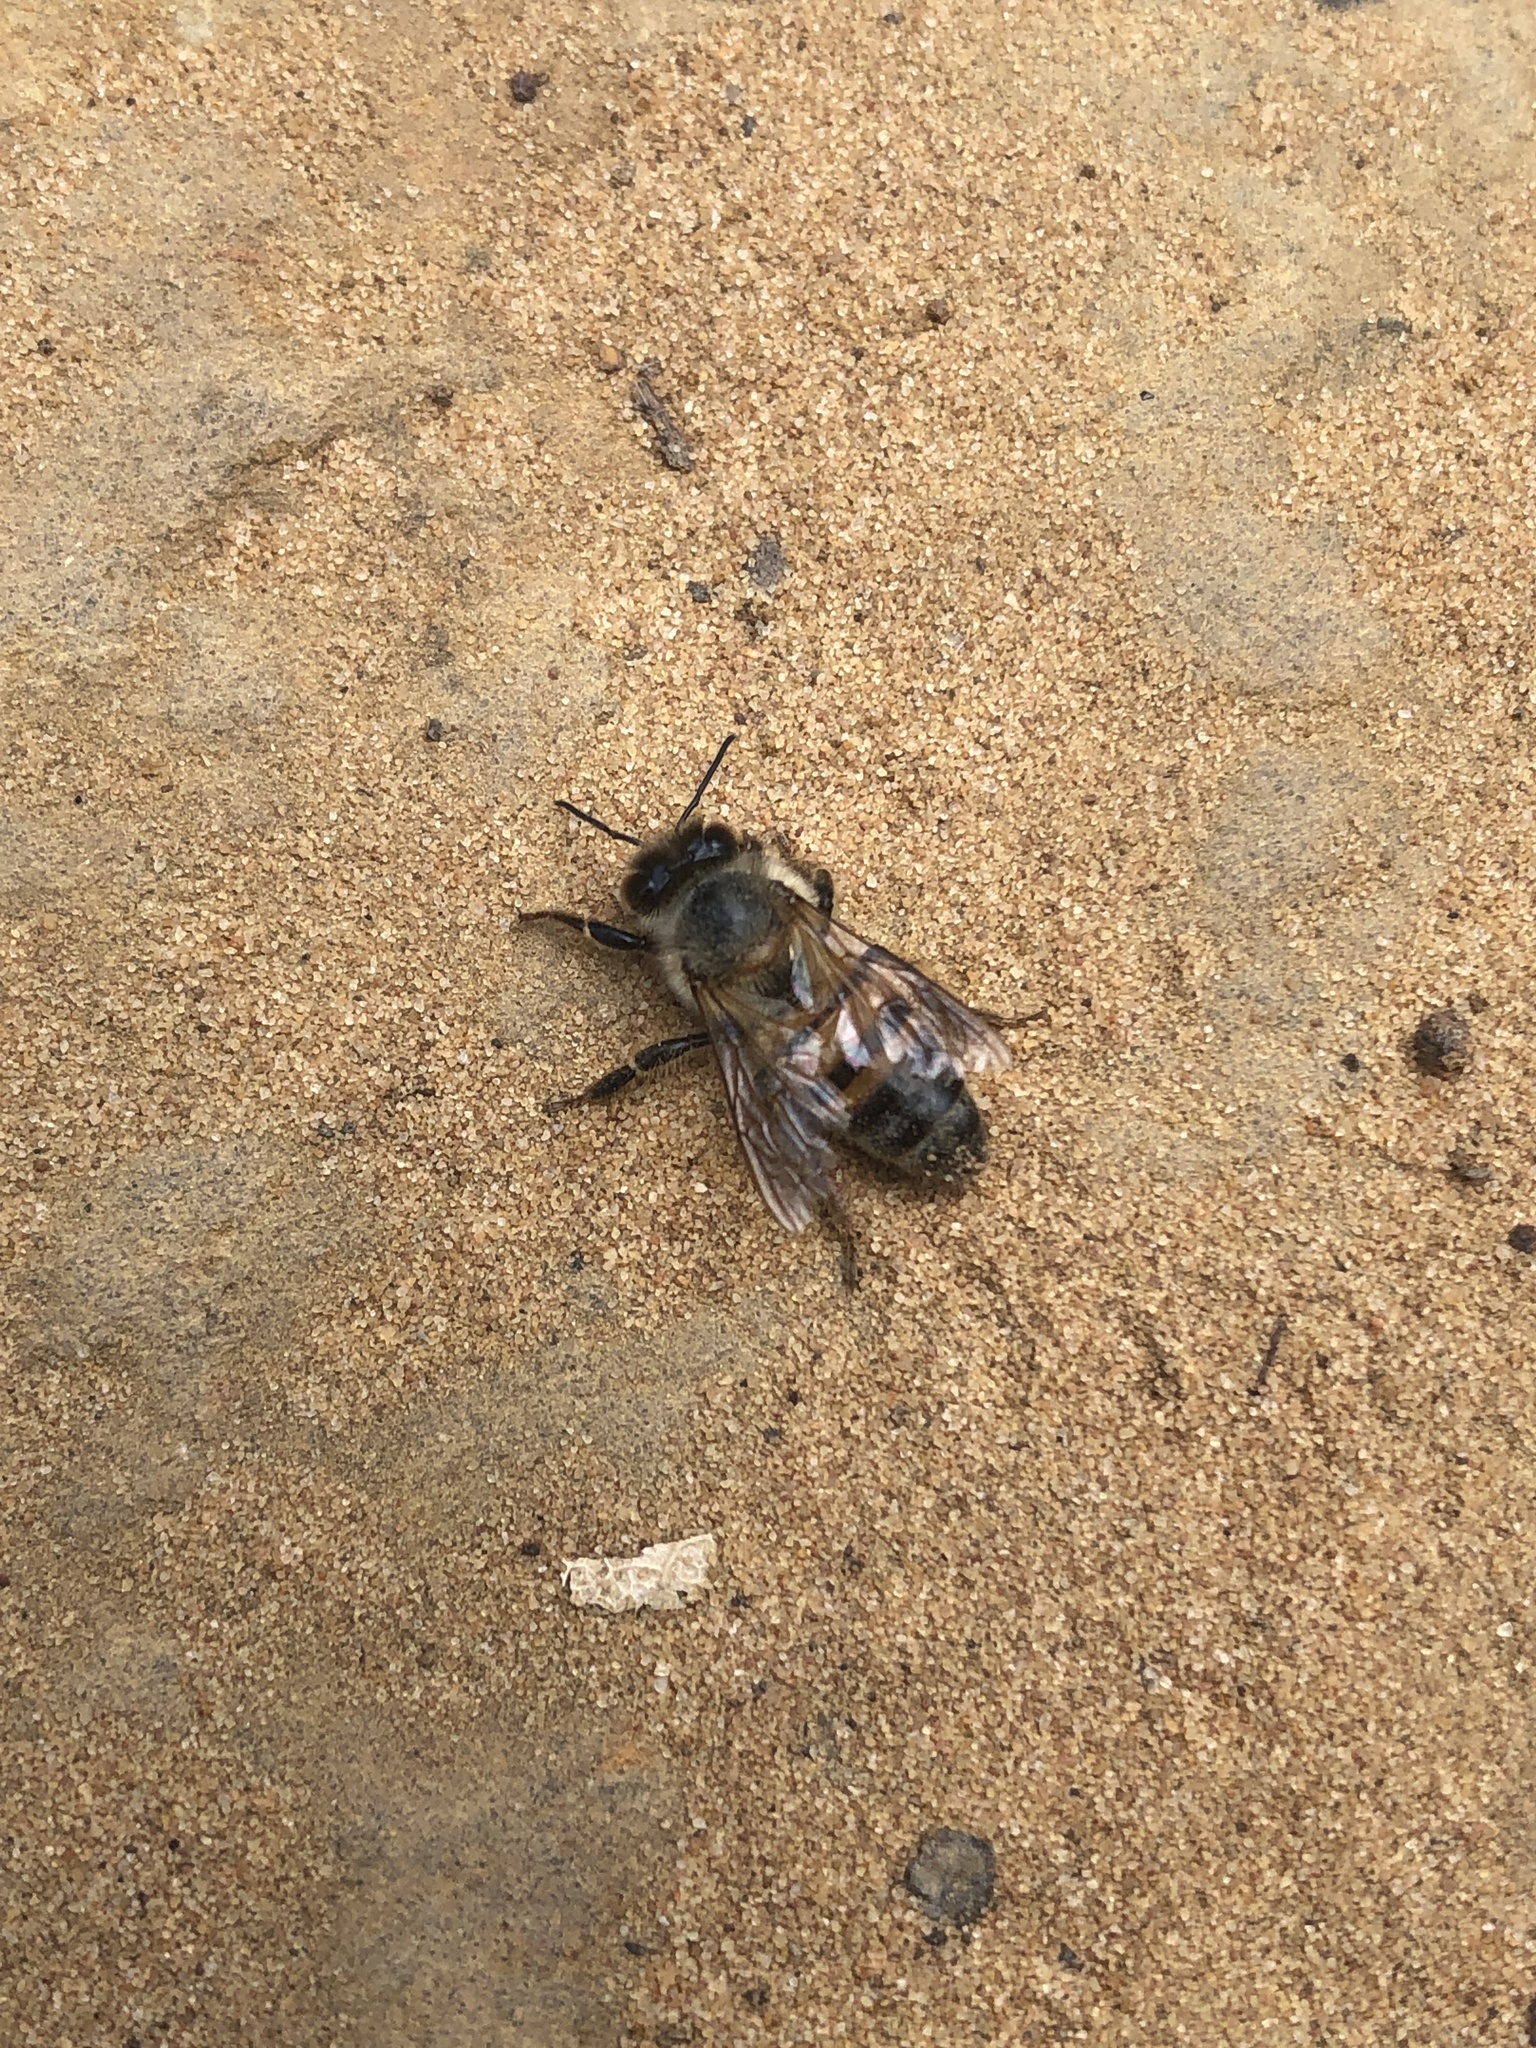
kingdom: Animalia
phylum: Arthropoda
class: Insecta
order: Hymenoptera
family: Apidae
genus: Apis
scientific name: Apis mellifera
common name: Honey bee
